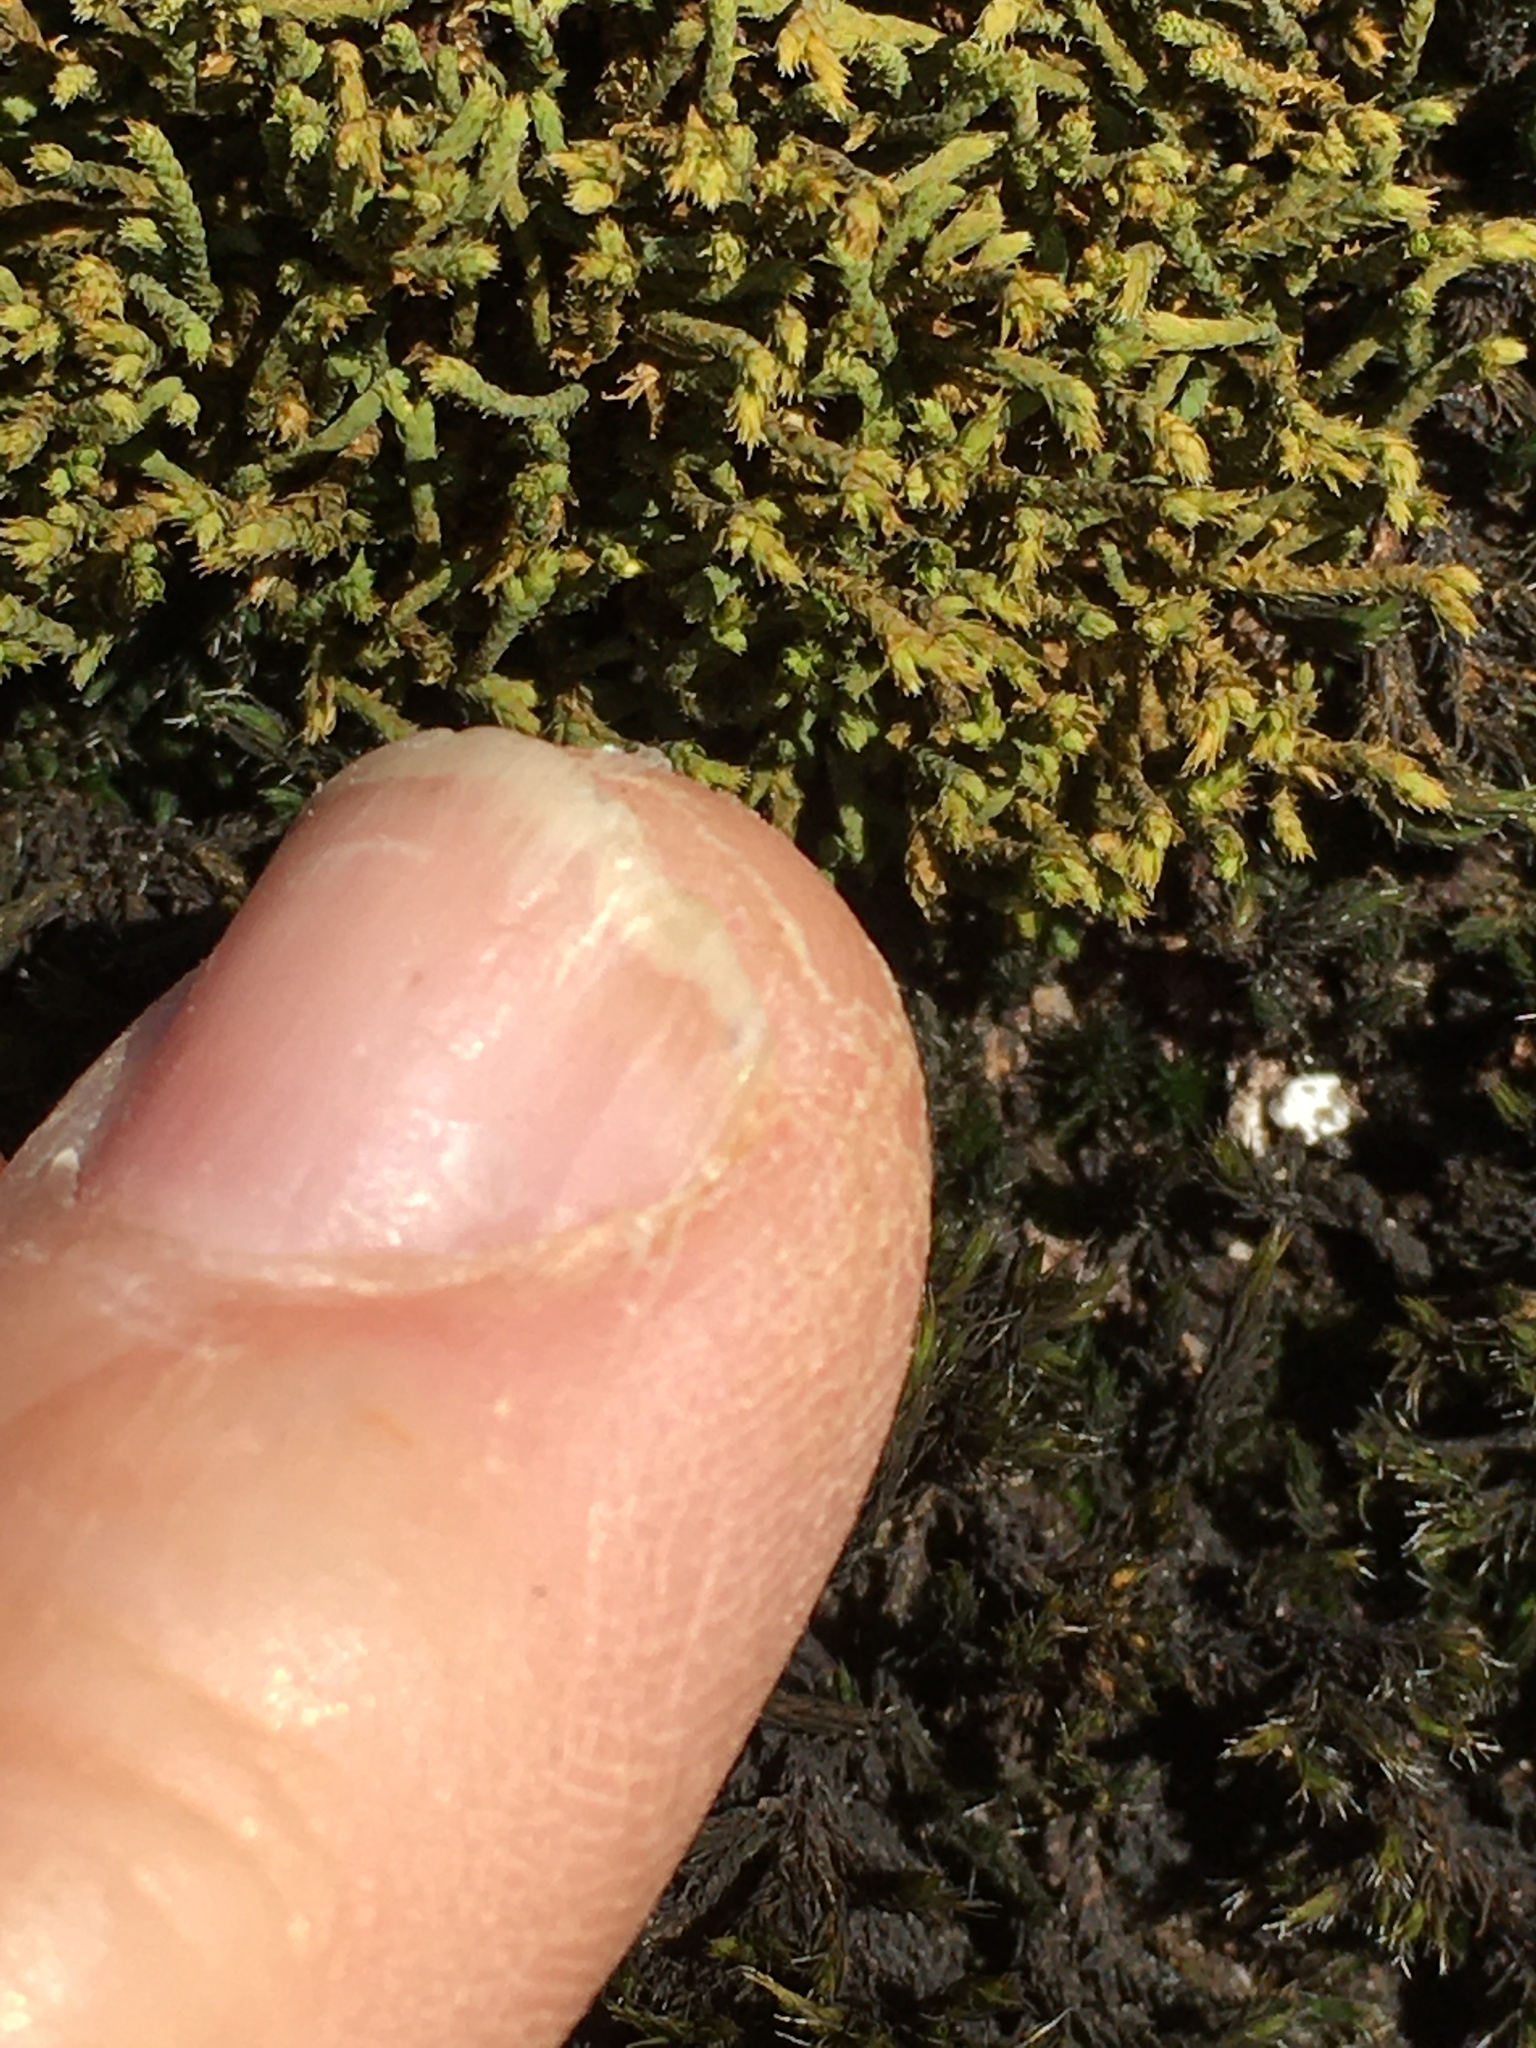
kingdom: Plantae
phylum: Bryophyta
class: Bryopsida
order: Hedwigiales
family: Hedwigiaceae
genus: Hedwigia
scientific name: Hedwigia ciliata
